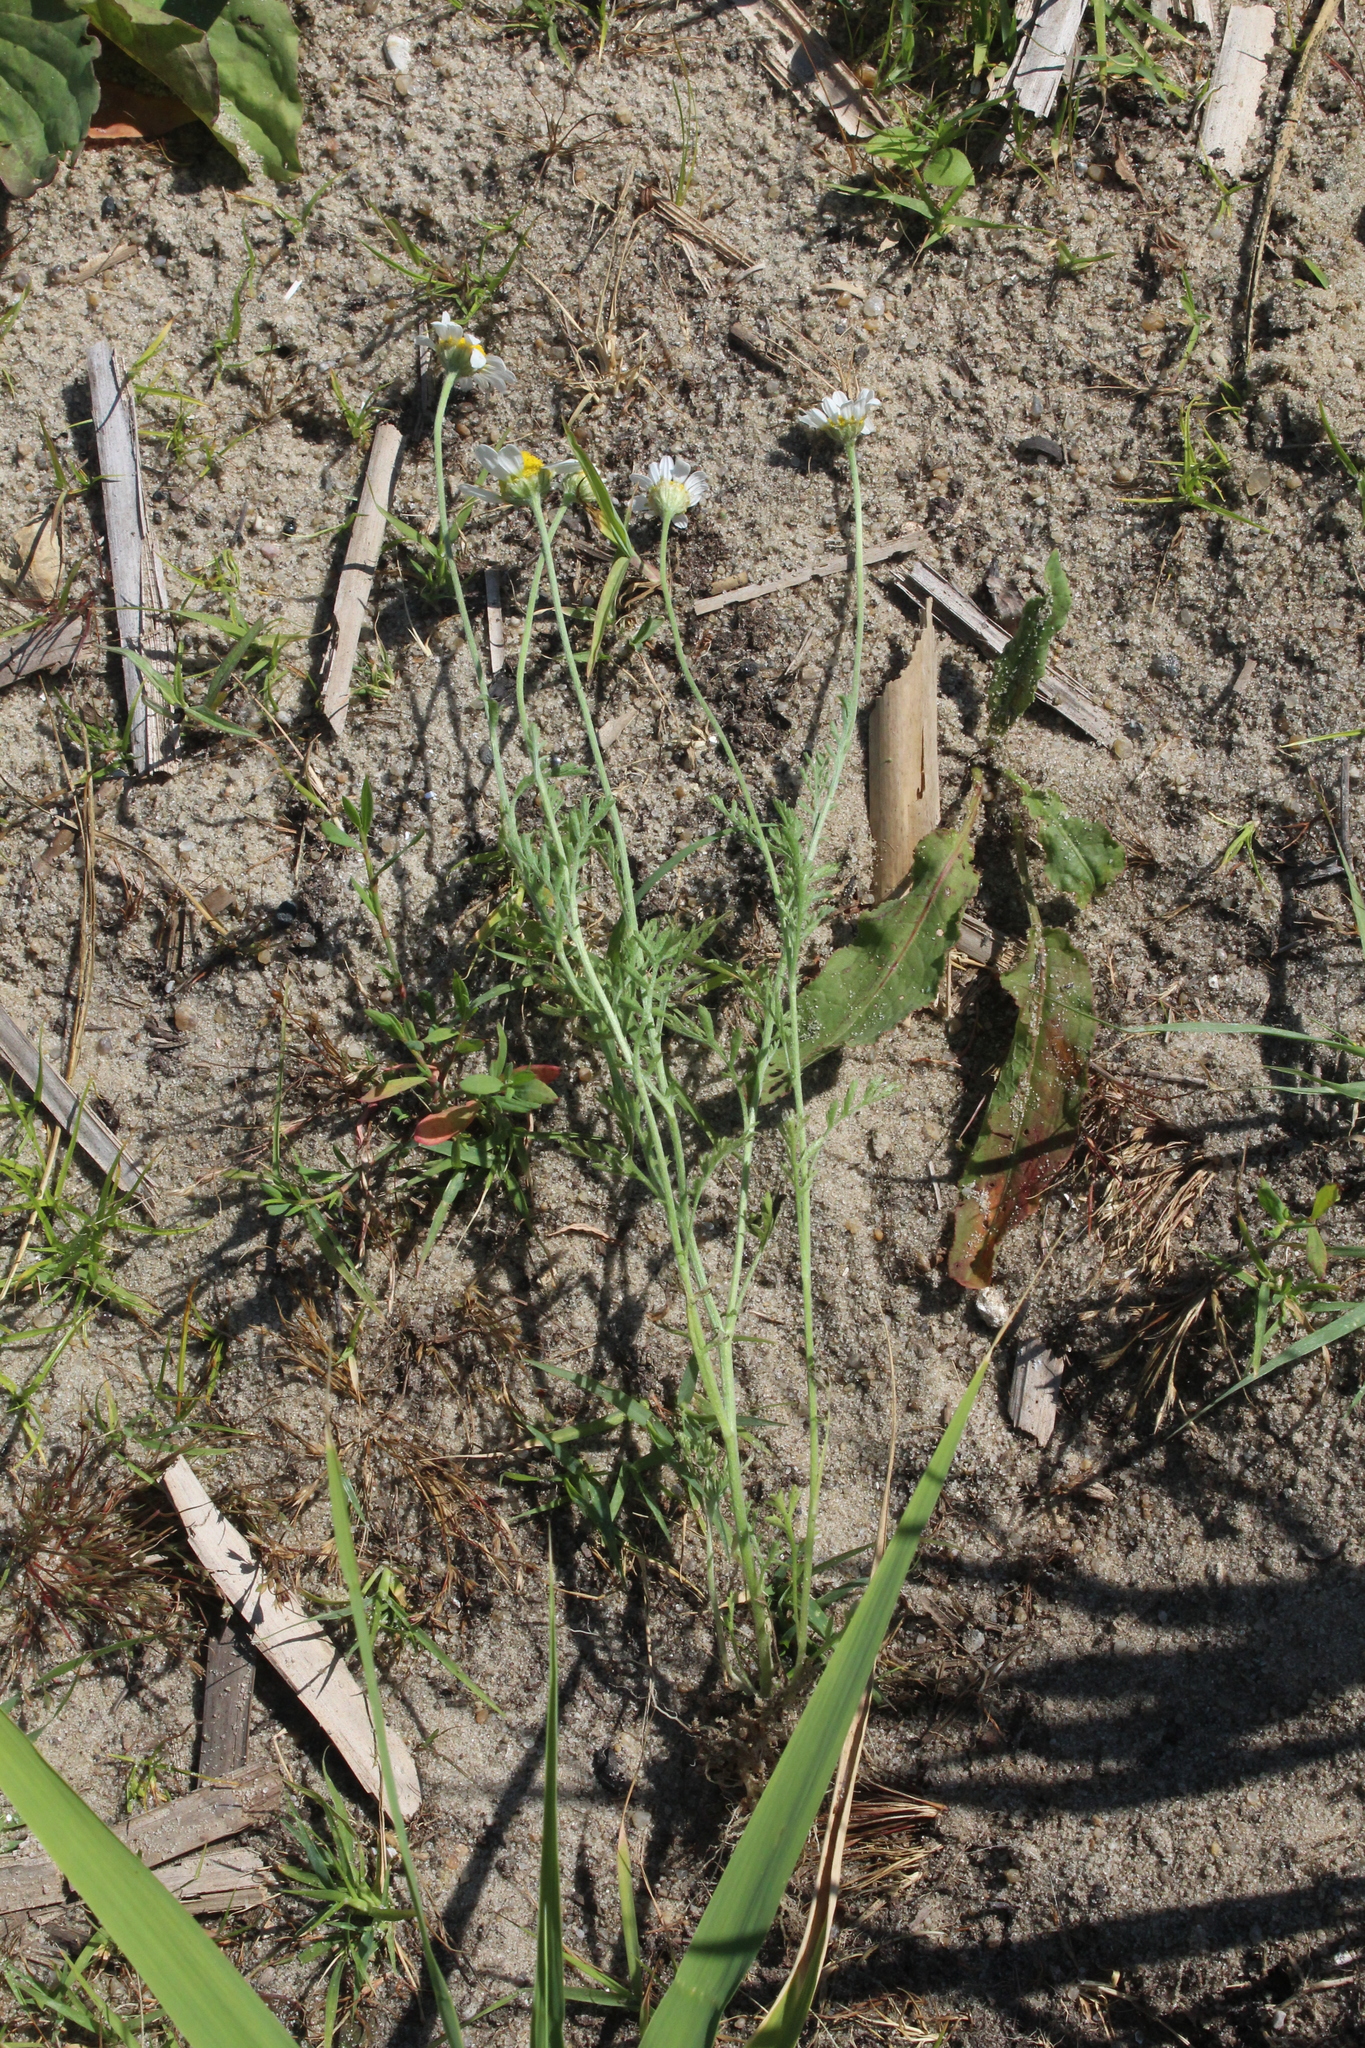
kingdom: Plantae
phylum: Tracheophyta
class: Magnoliopsida
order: Asterales
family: Asteraceae
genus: Anthemis
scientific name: Anthemis ruthenica
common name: Eastern chamomile
